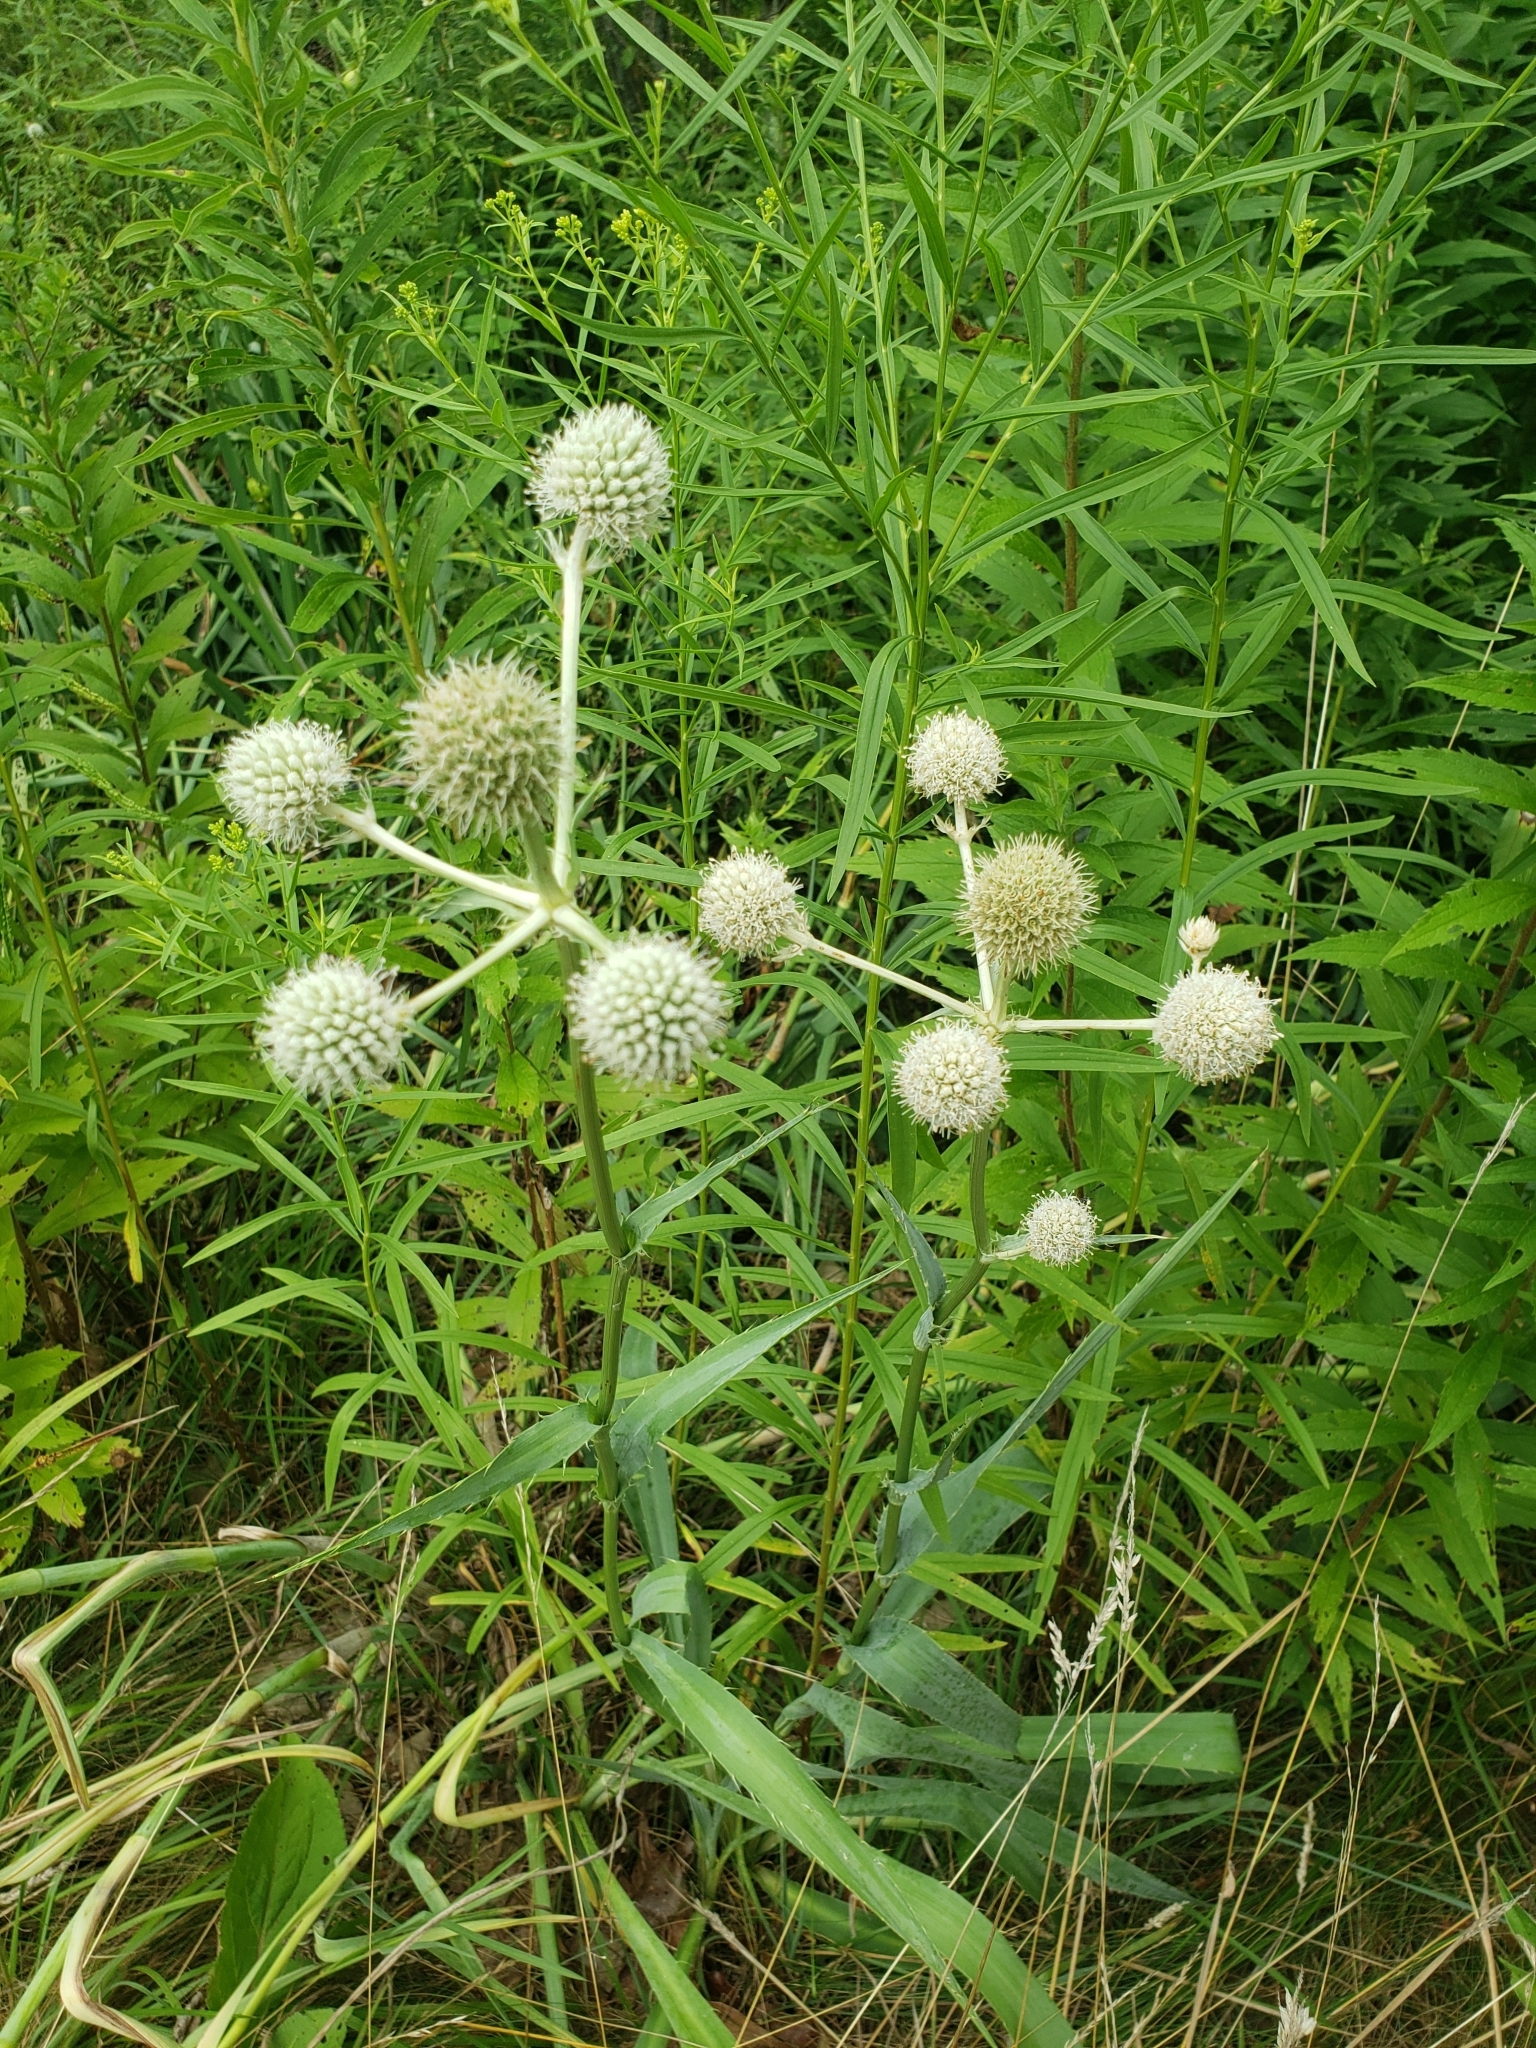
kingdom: Plantae
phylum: Tracheophyta
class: Magnoliopsida
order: Apiales
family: Apiaceae
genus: Eryngium
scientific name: Eryngium yuccifolium
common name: Button eryngo
